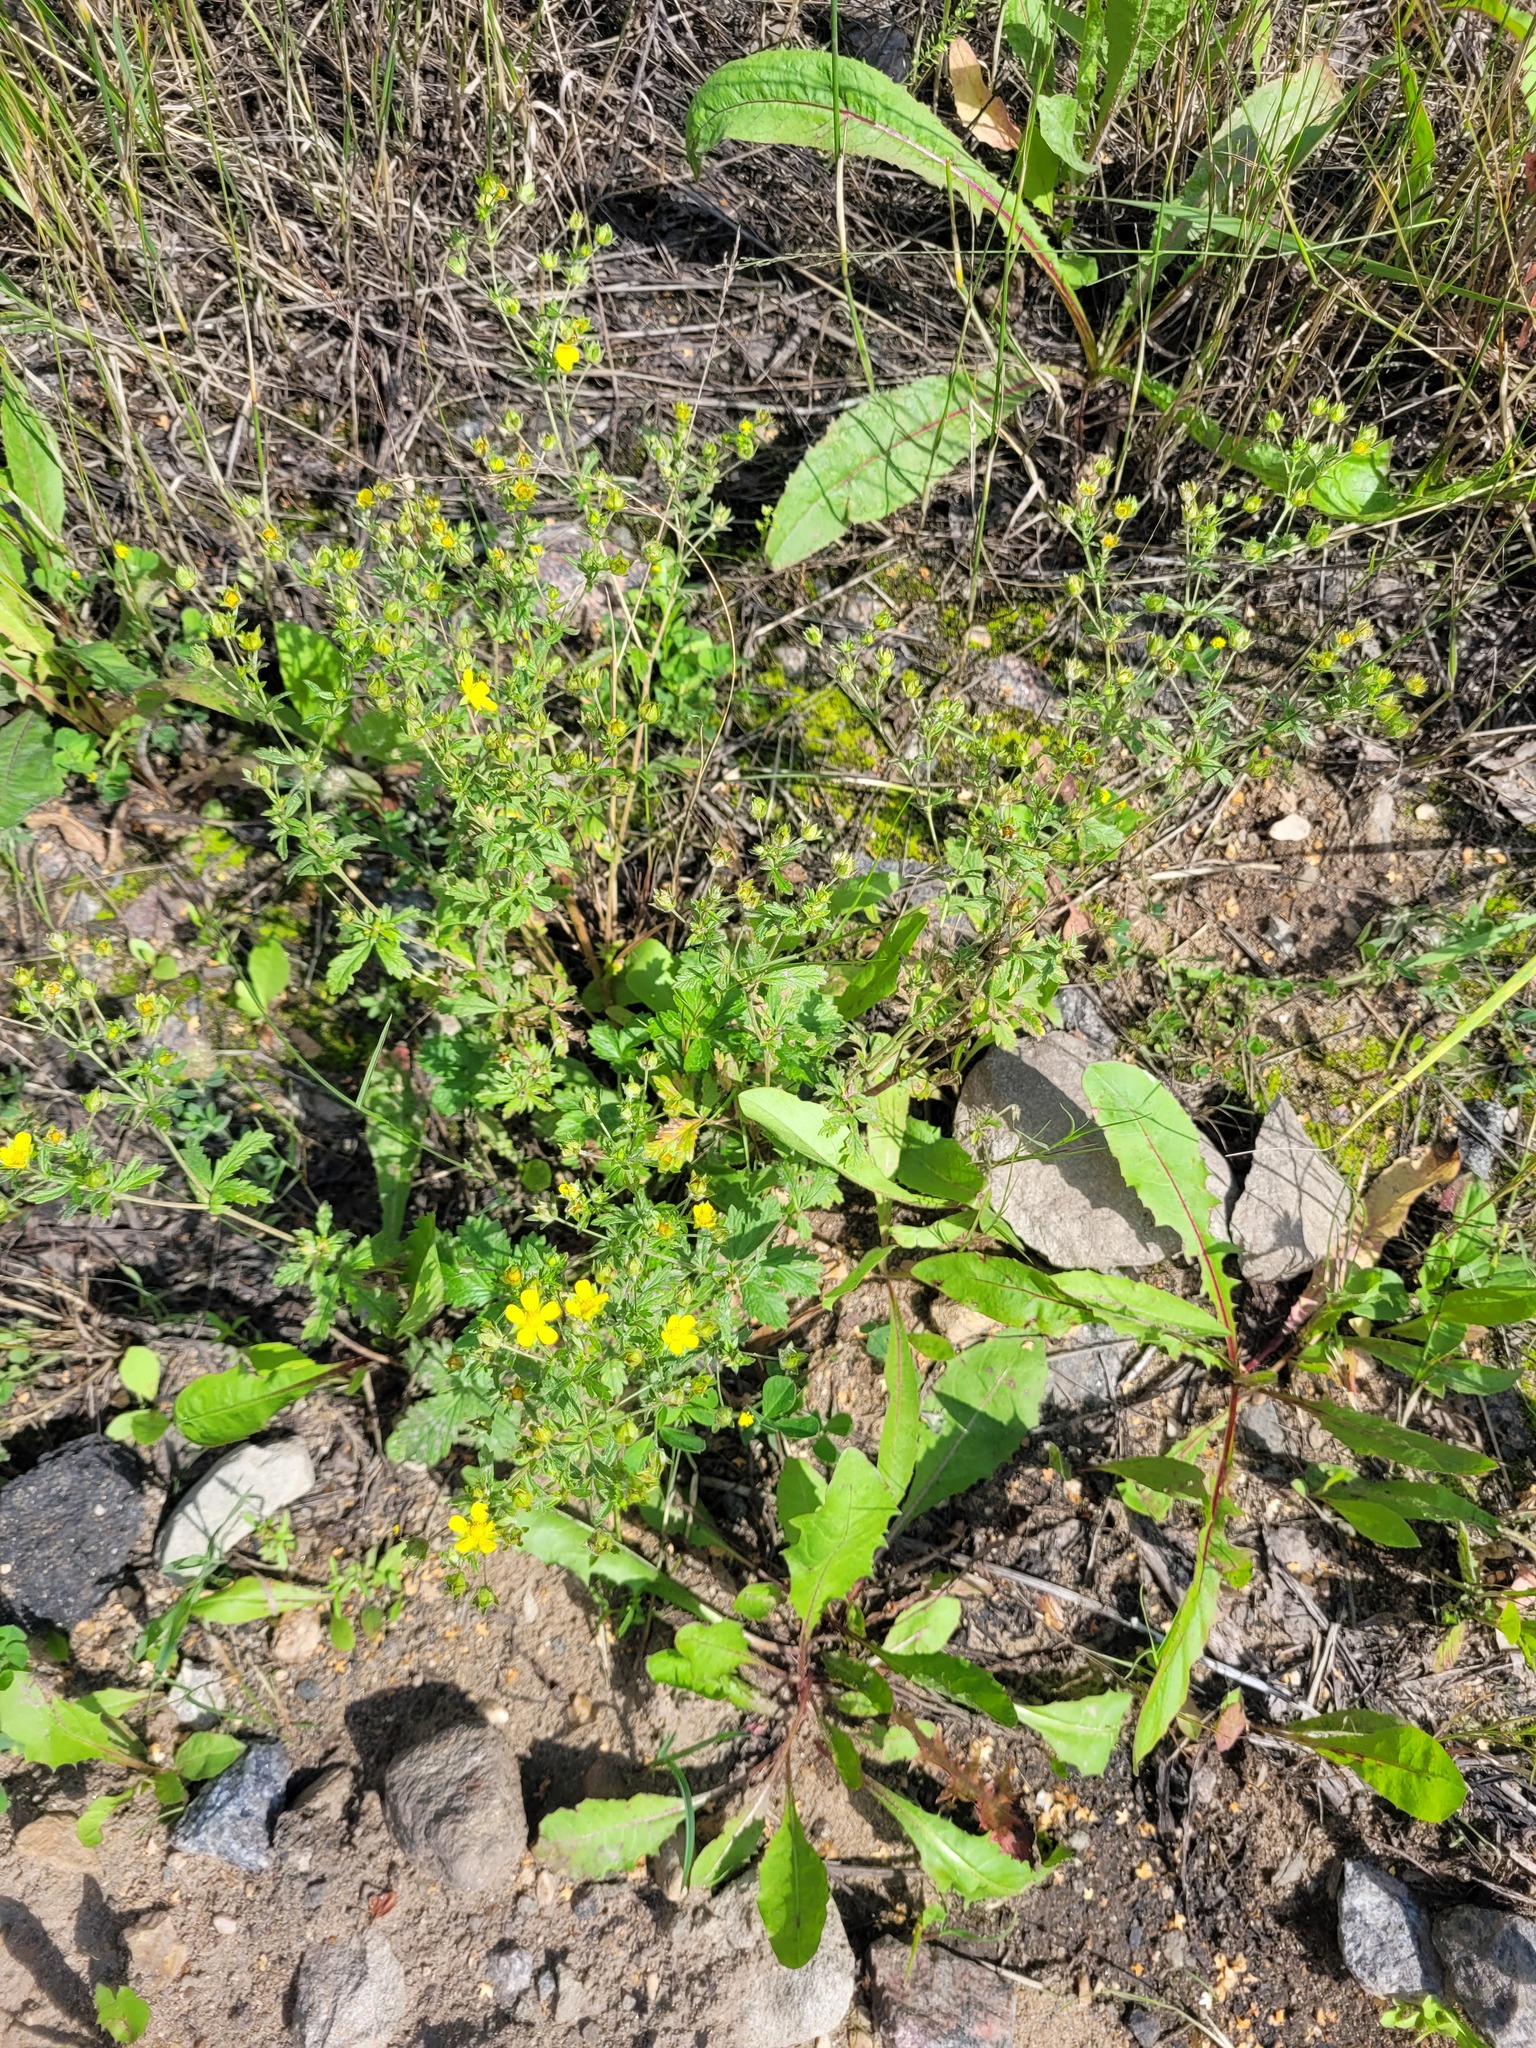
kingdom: Plantae
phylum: Tracheophyta
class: Magnoliopsida
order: Rosales
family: Rosaceae
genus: Potentilla
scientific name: Potentilla intermedia
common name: Downy cinquefoil
